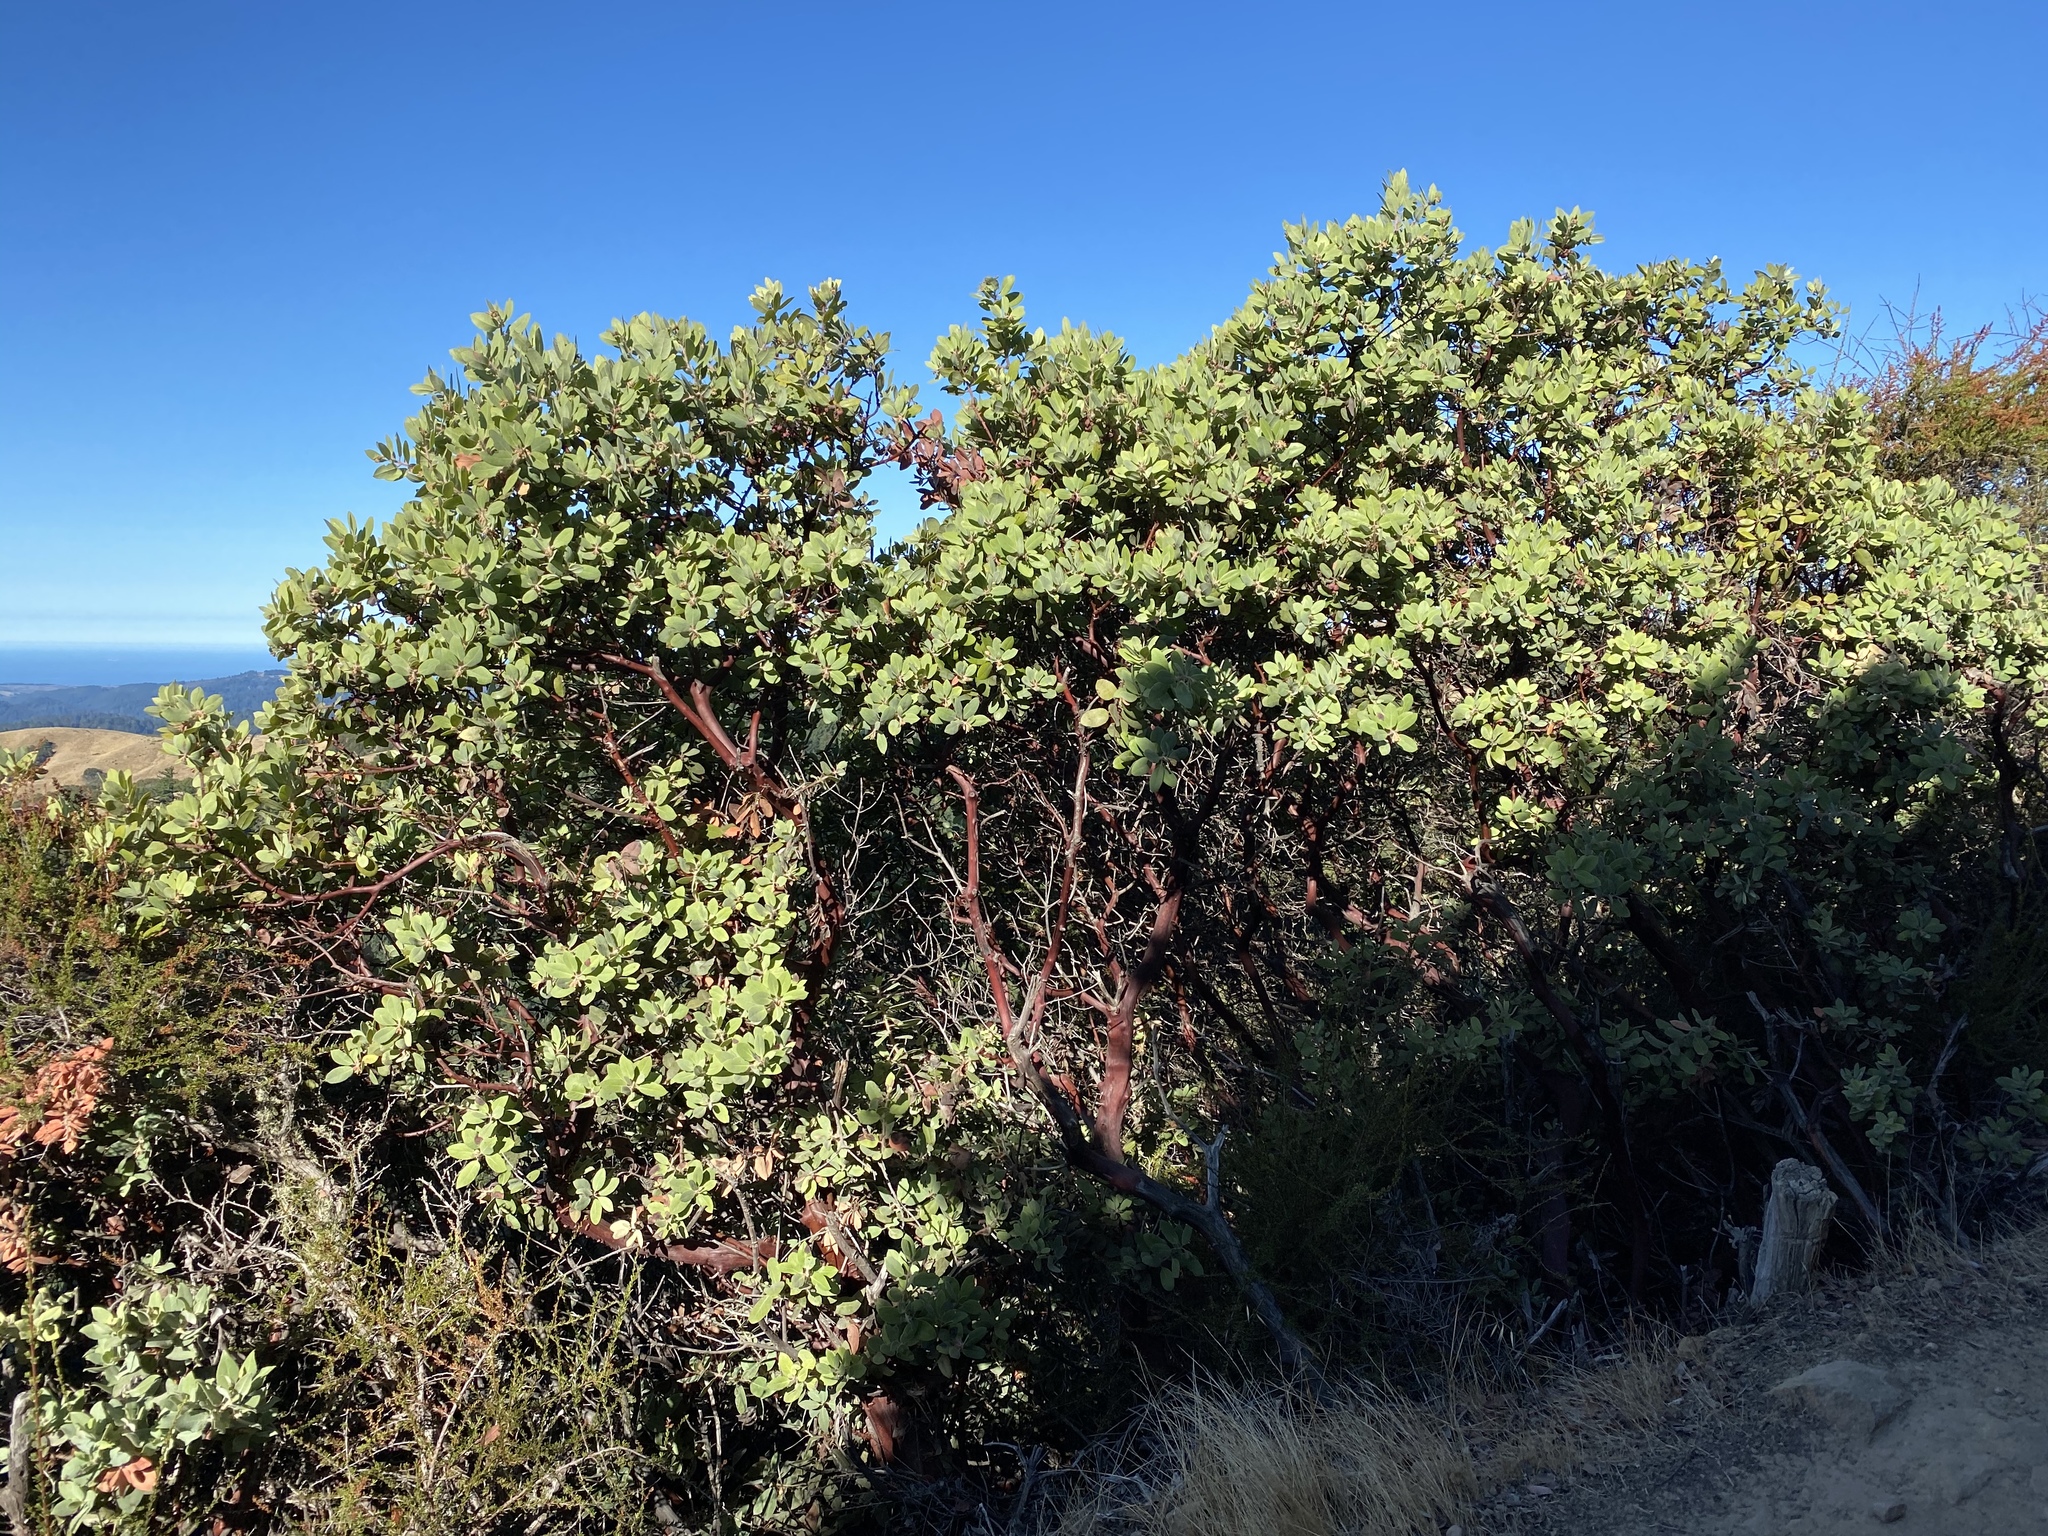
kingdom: Plantae
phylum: Tracheophyta
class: Magnoliopsida
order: Ericales
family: Ericaceae
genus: Arctostaphylos
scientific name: Arctostaphylos crustacea
